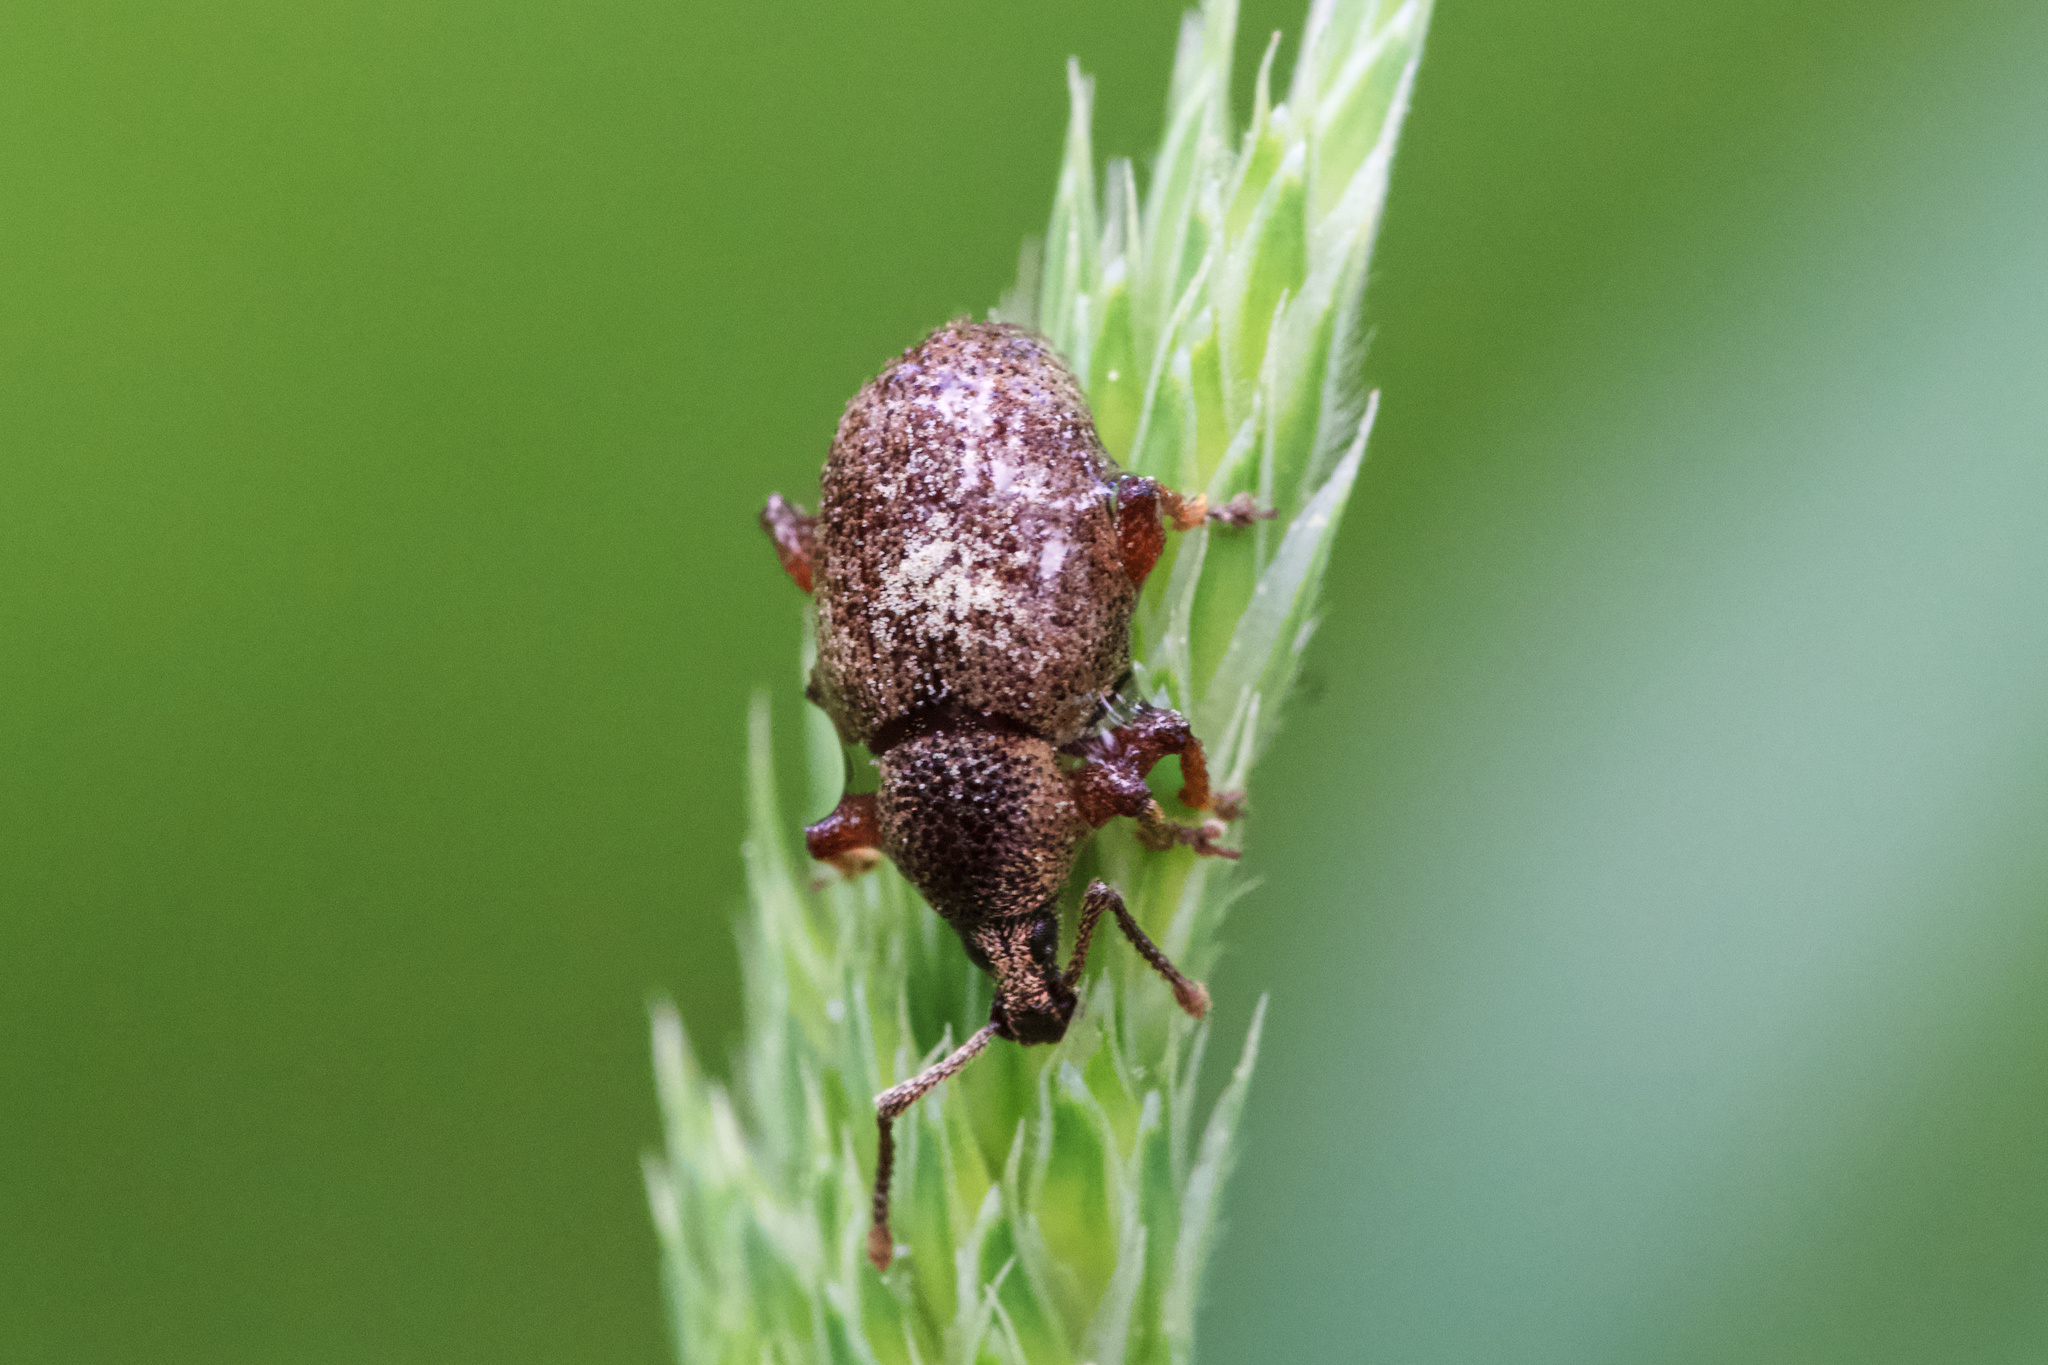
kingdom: Animalia
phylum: Arthropoda
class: Insecta
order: Coleoptera
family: Curculionidae
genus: Otiorhynchus
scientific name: Otiorhynchus singularis
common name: Clay-coloured weevil
